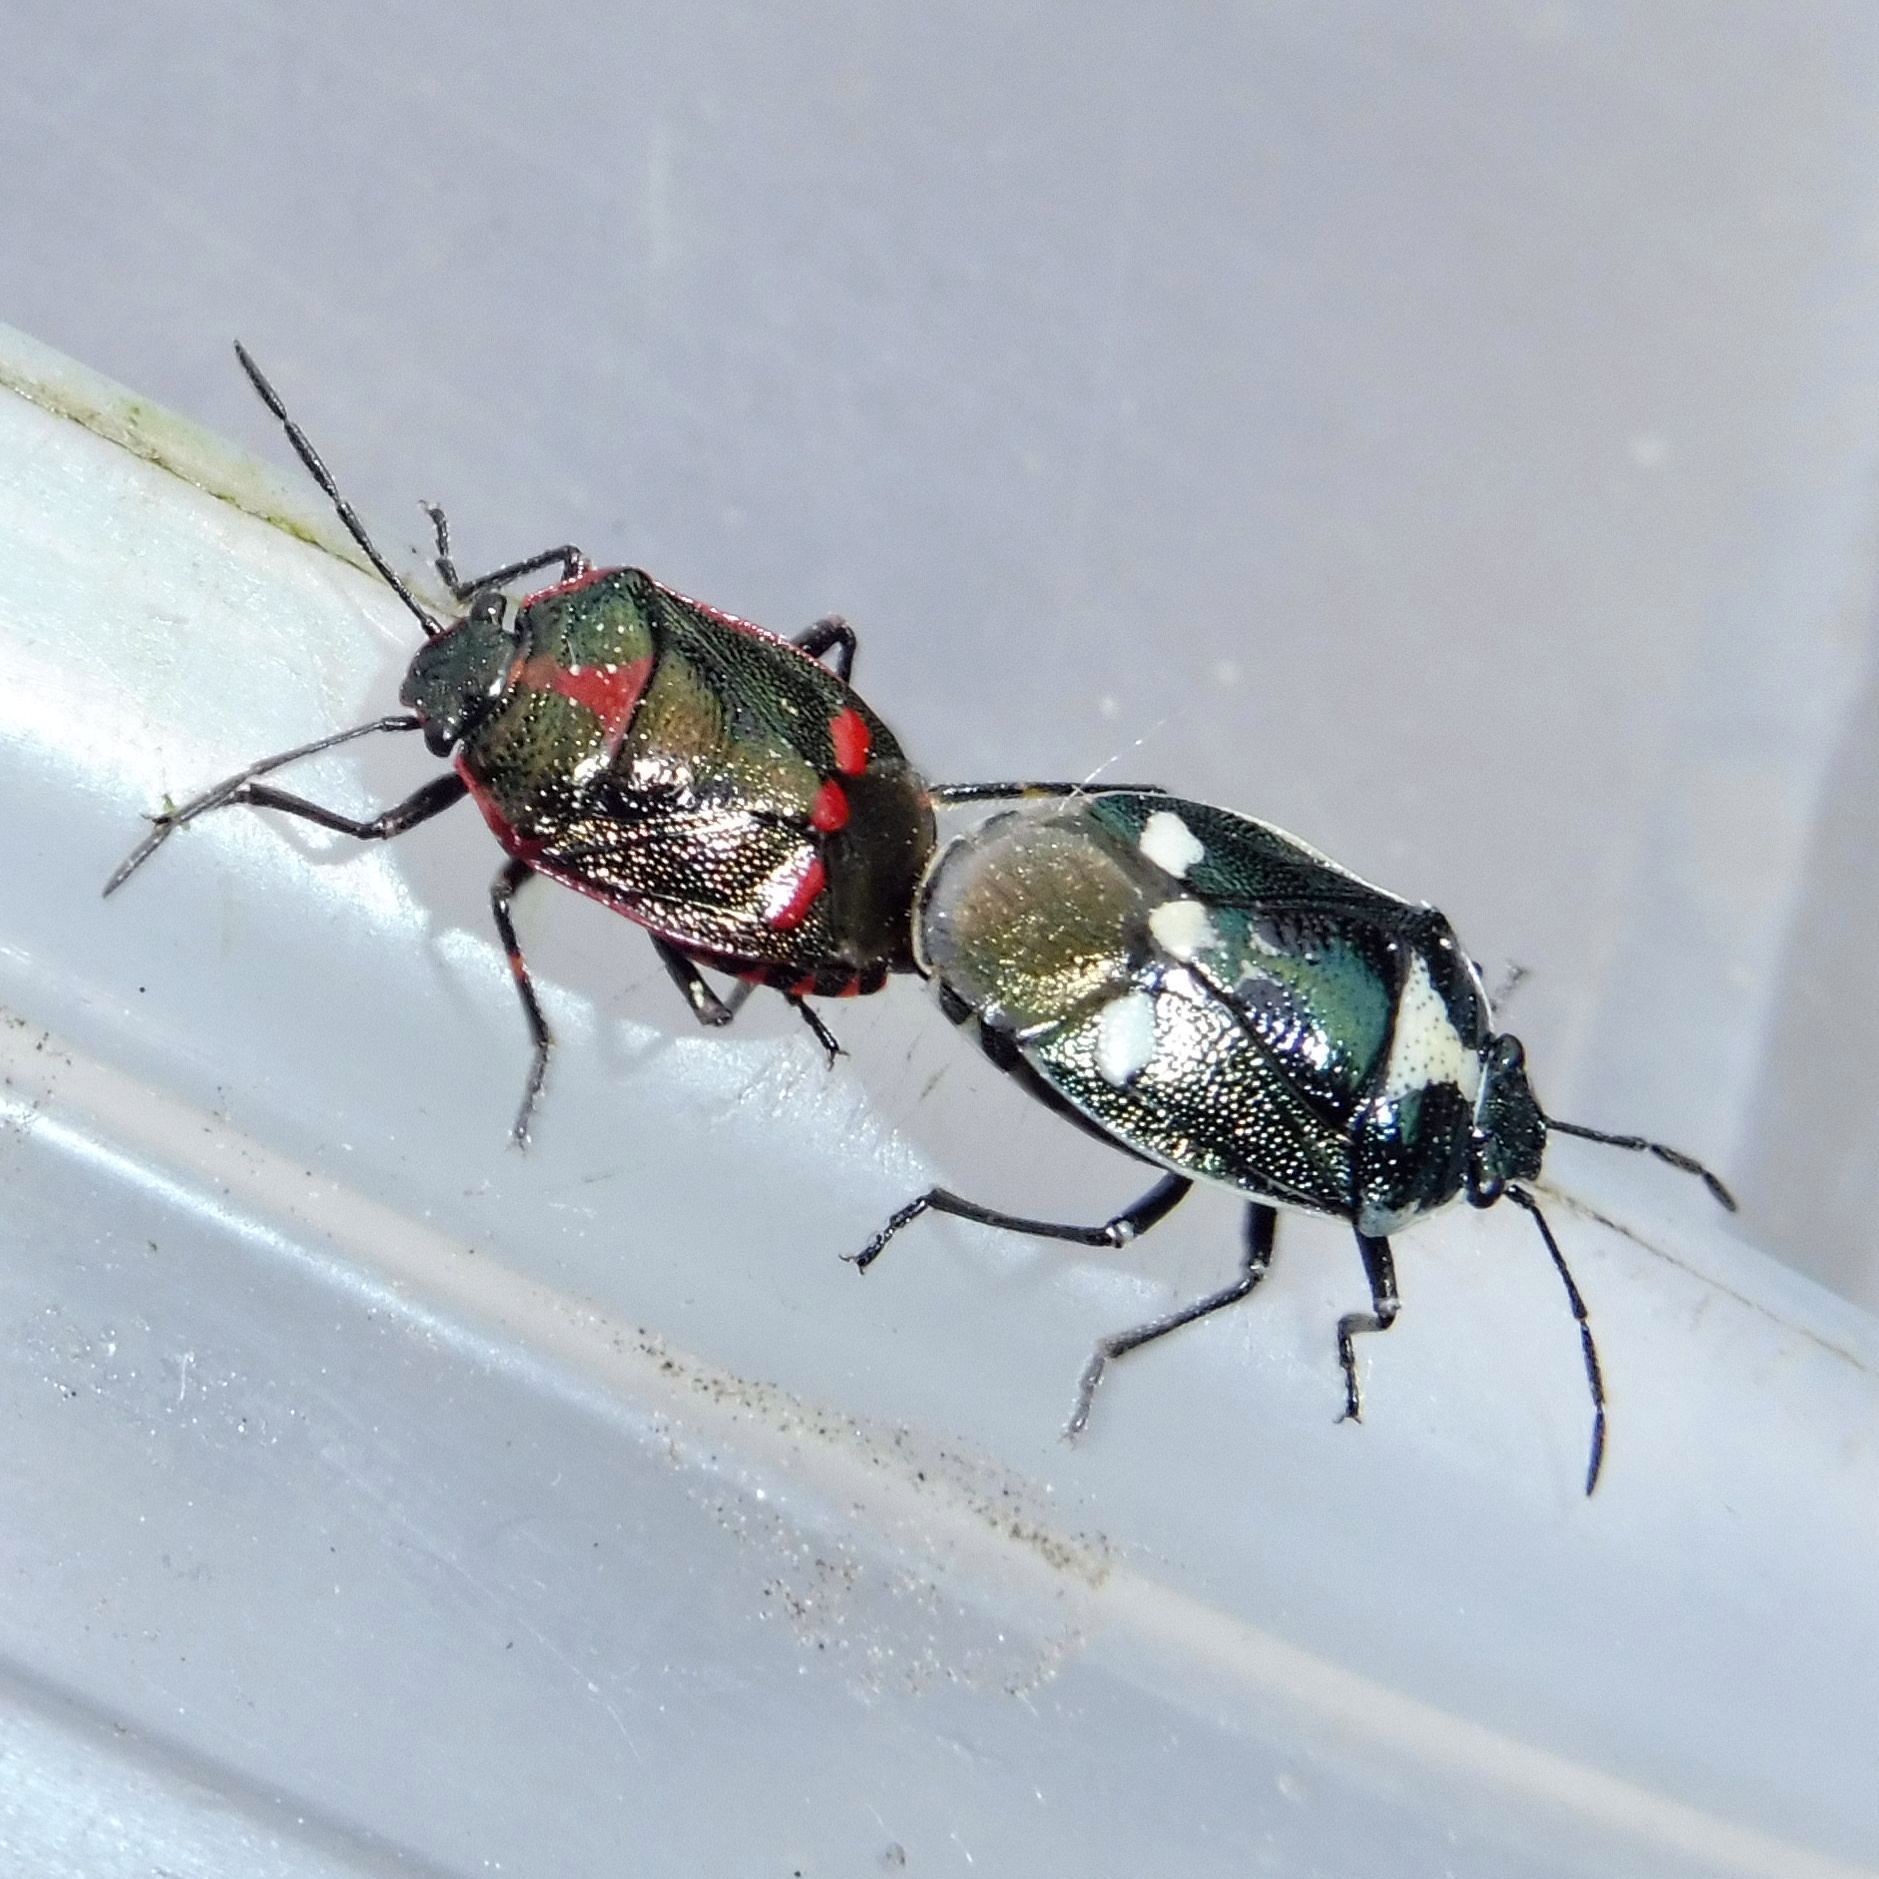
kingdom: Animalia
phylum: Arthropoda
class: Insecta
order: Hemiptera
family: Pentatomidae
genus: Eurydema
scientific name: Eurydema oleracea
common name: Cabbage bug
